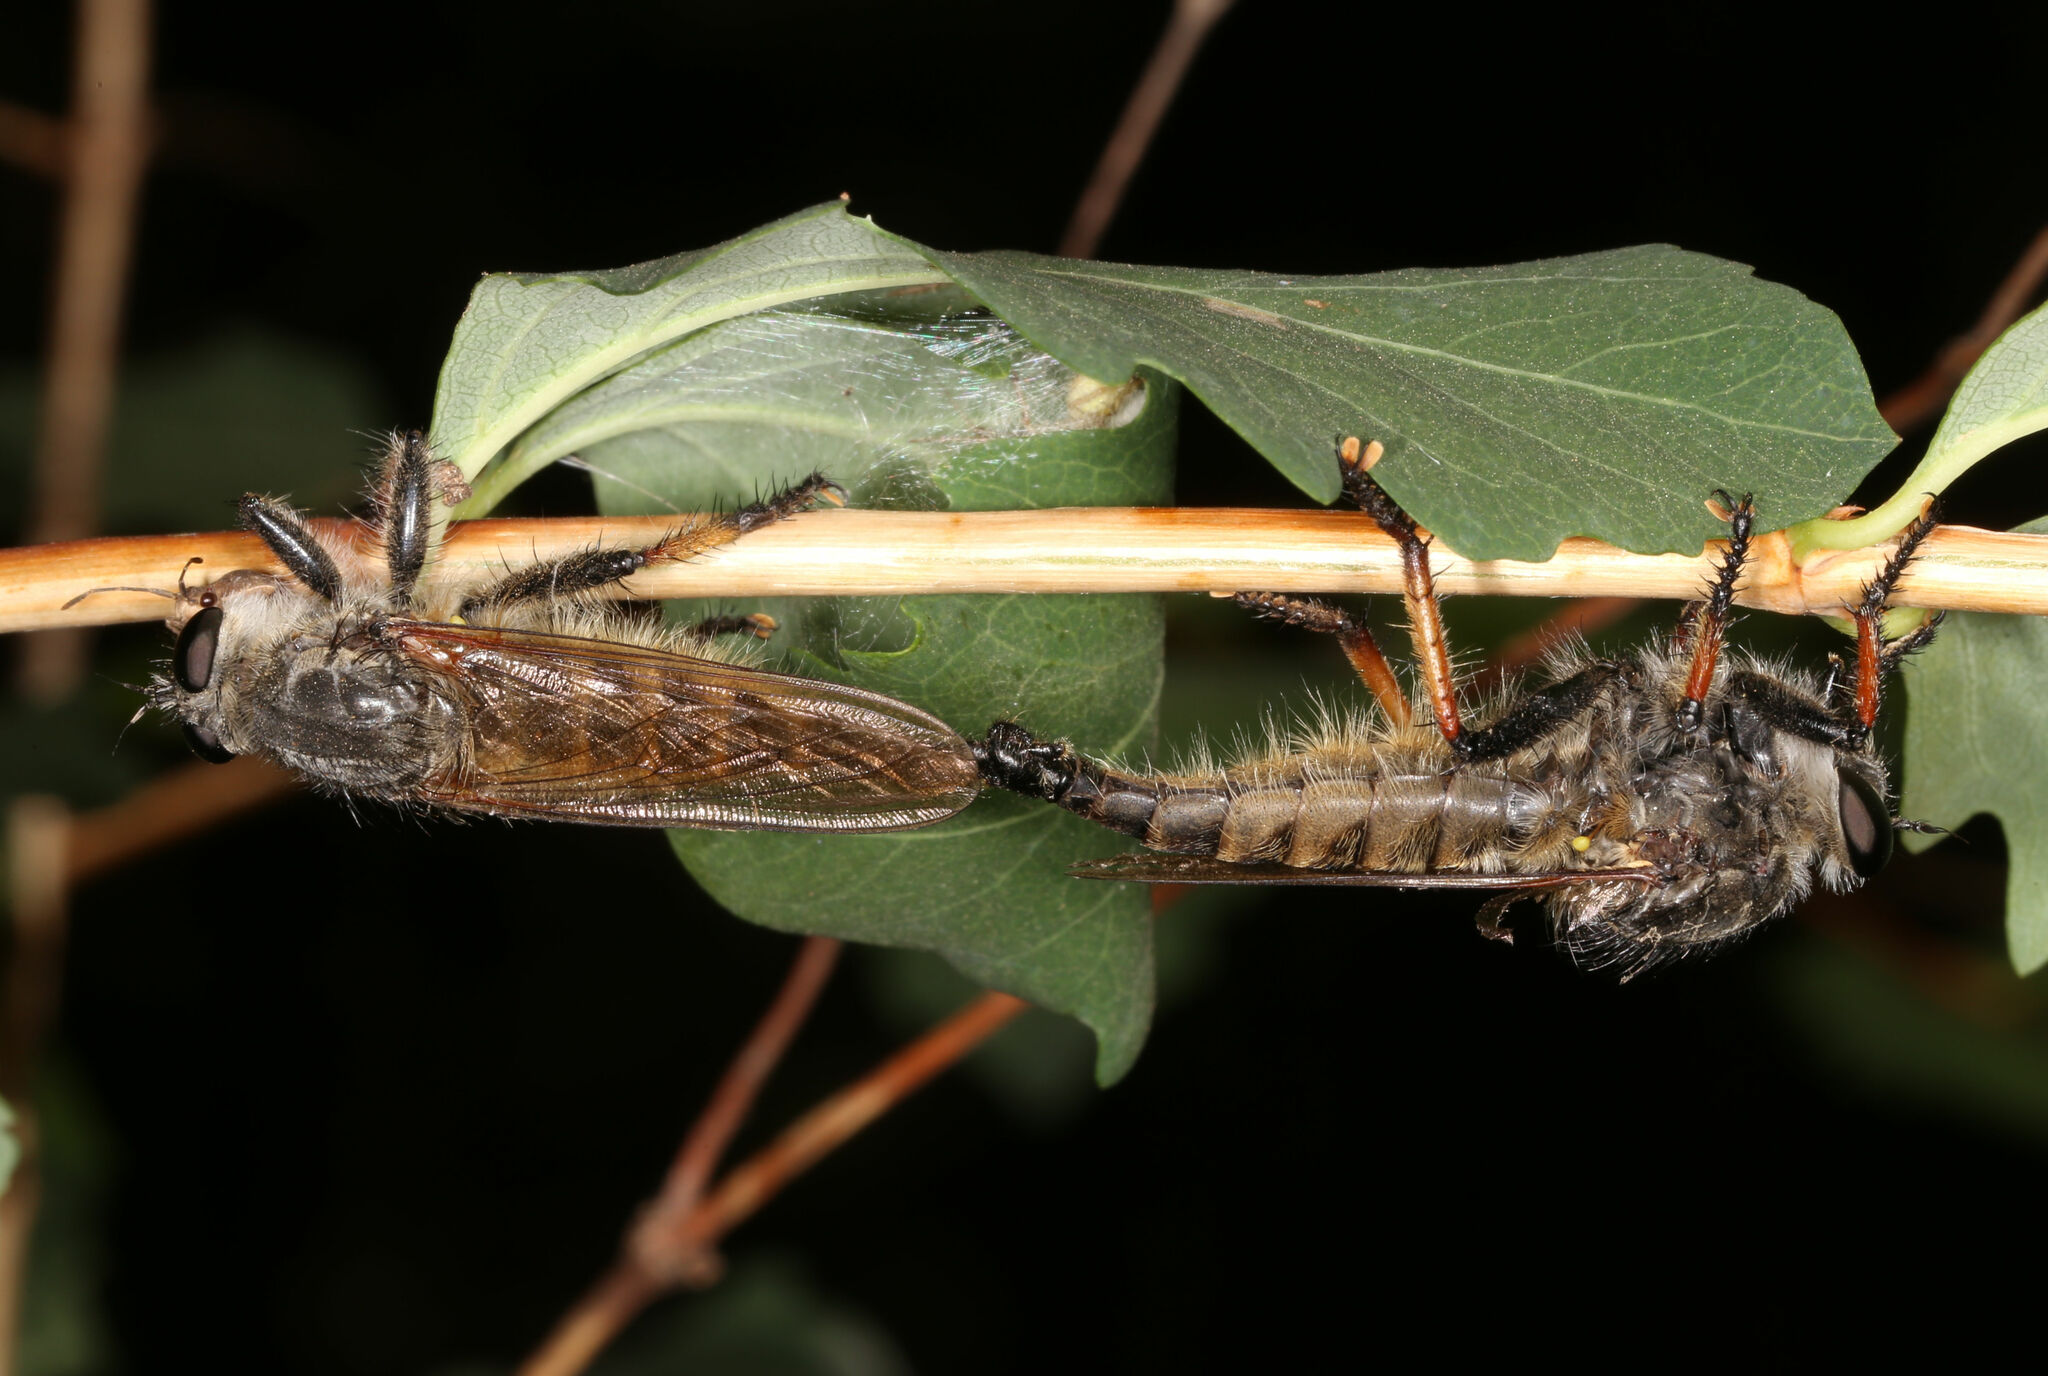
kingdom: Animalia
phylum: Arthropoda
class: Insecta
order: Diptera
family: Asilidae
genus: Promachus
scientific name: Promachus sackeni
